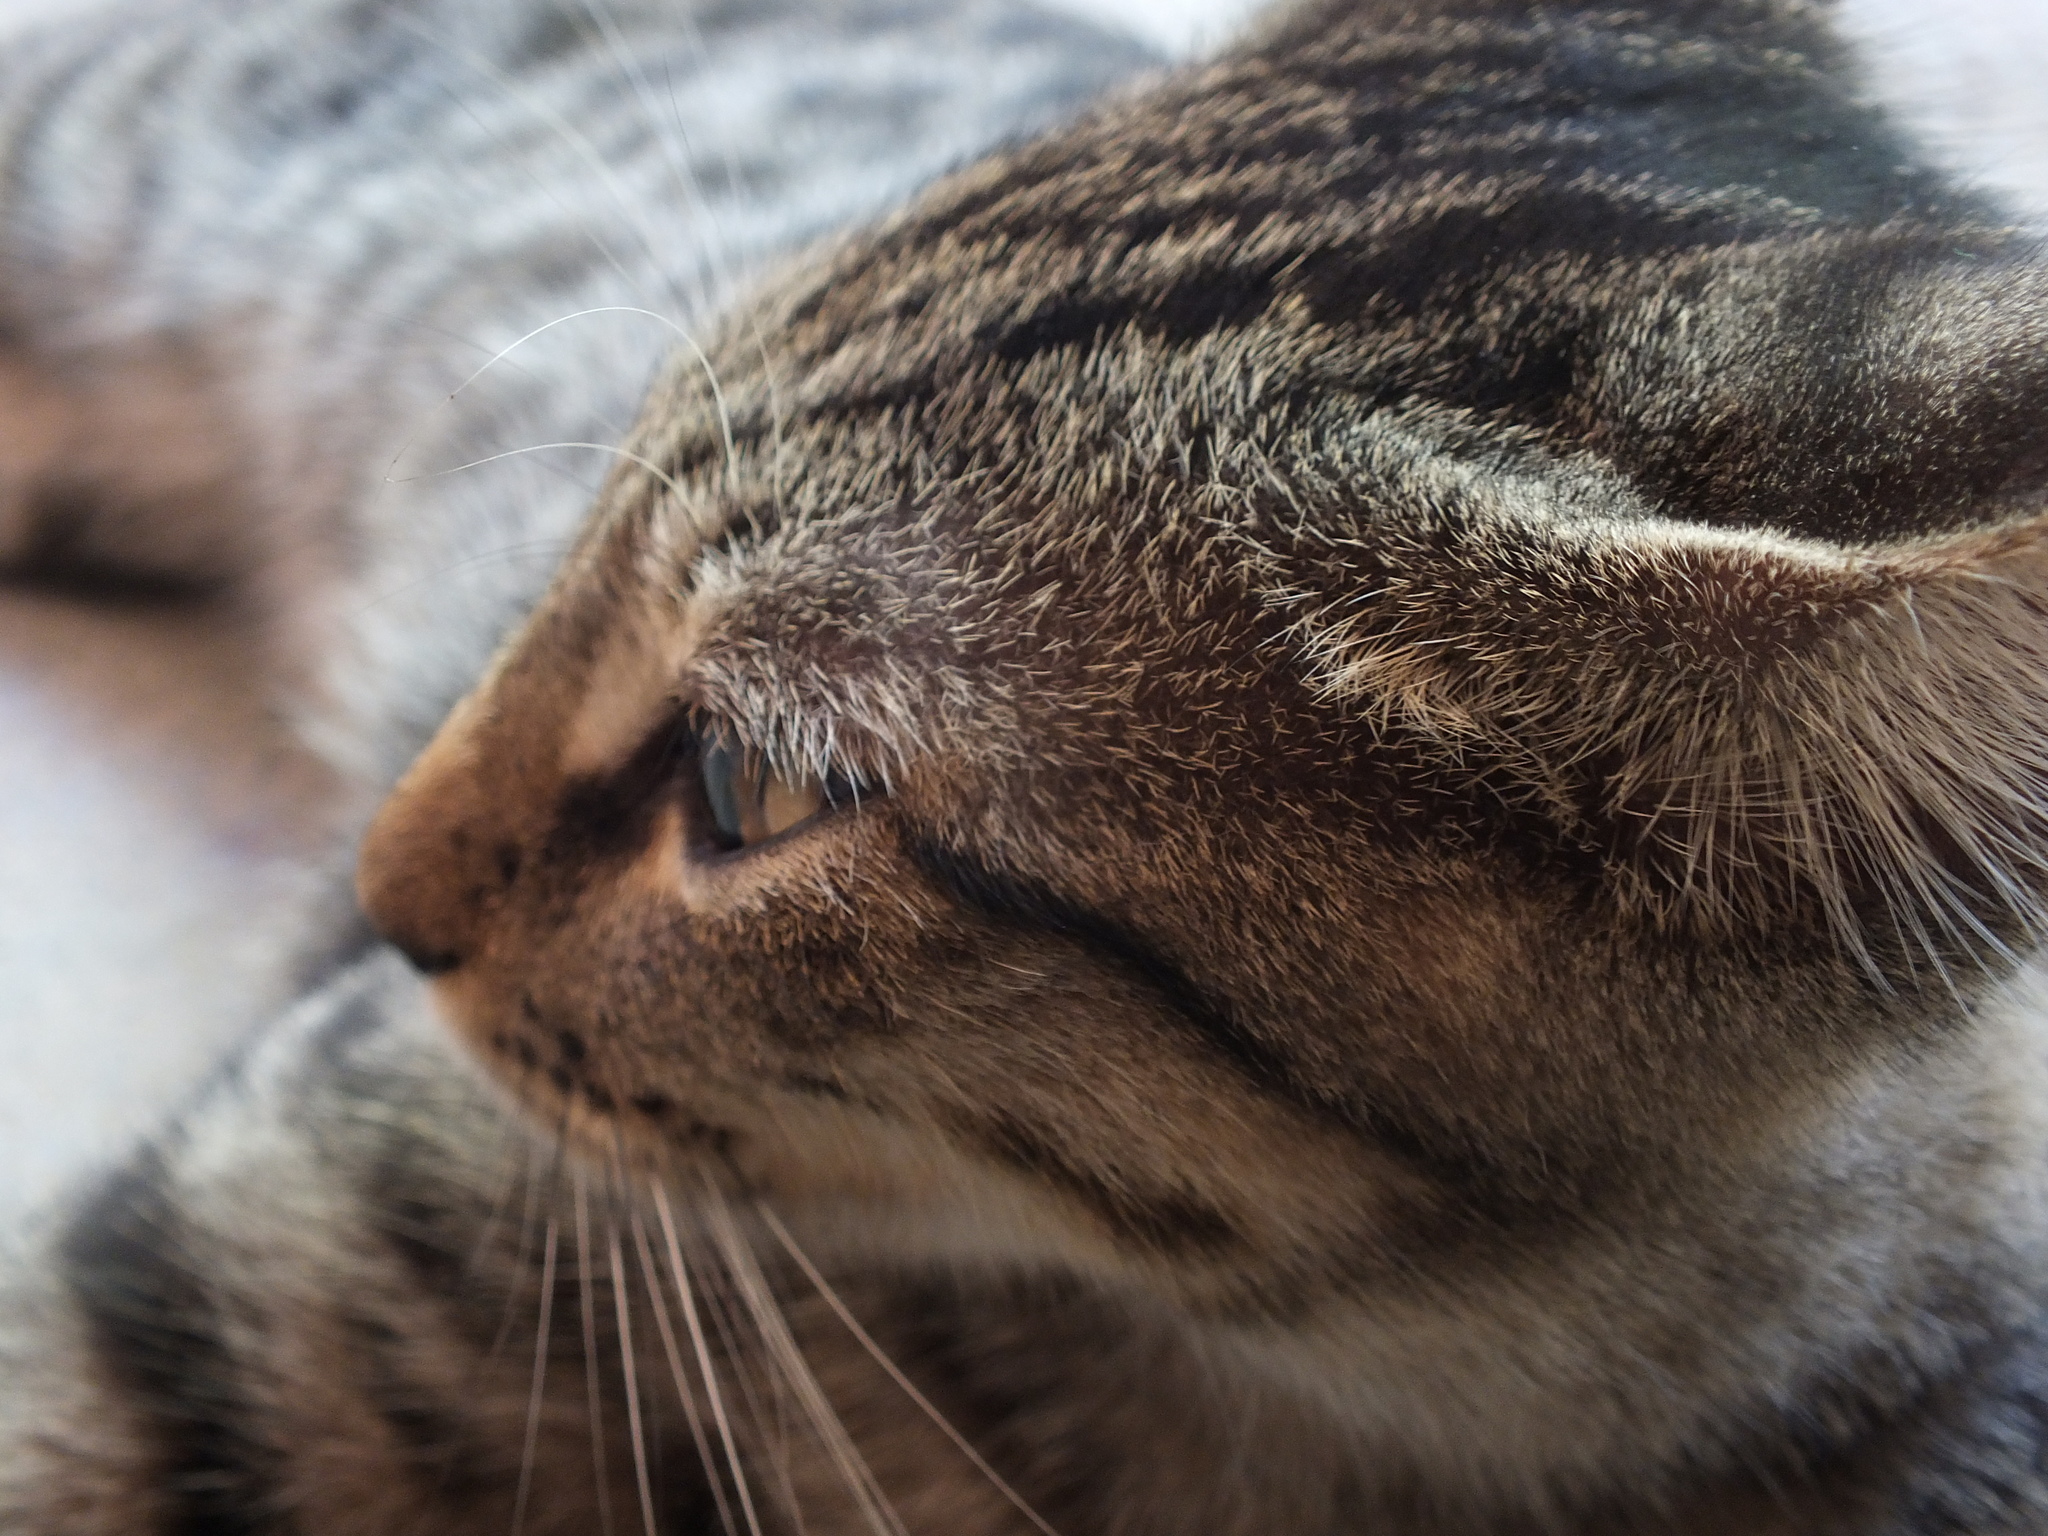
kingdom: Animalia
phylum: Chordata
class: Mammalia
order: Carnivora
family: Felidae
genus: Felis
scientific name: Felis catus
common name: Domestic cat
